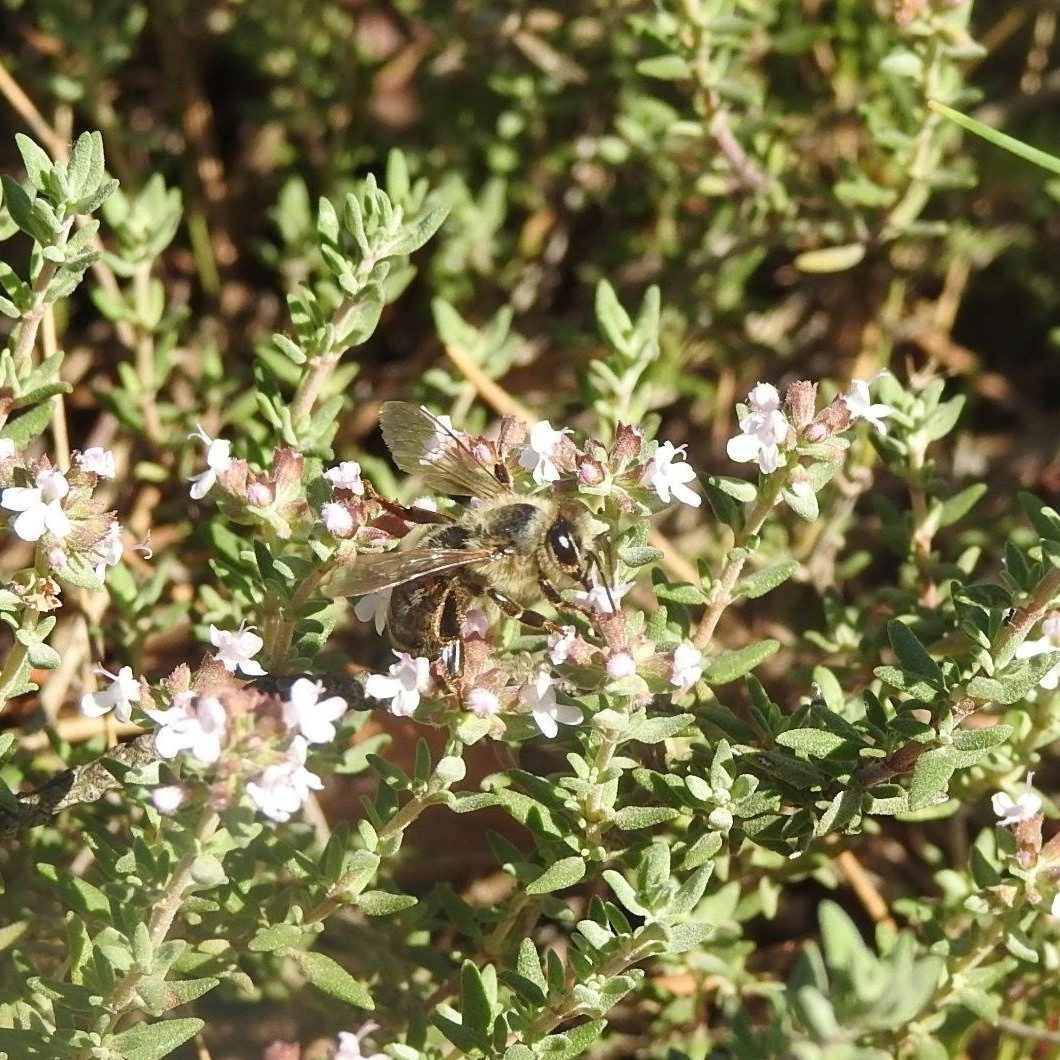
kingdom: Animalia
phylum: Arthropoda
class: Insecta
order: Hymenoptera
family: Apidae
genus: Apis
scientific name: Apis mellifera
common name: Honey bee
